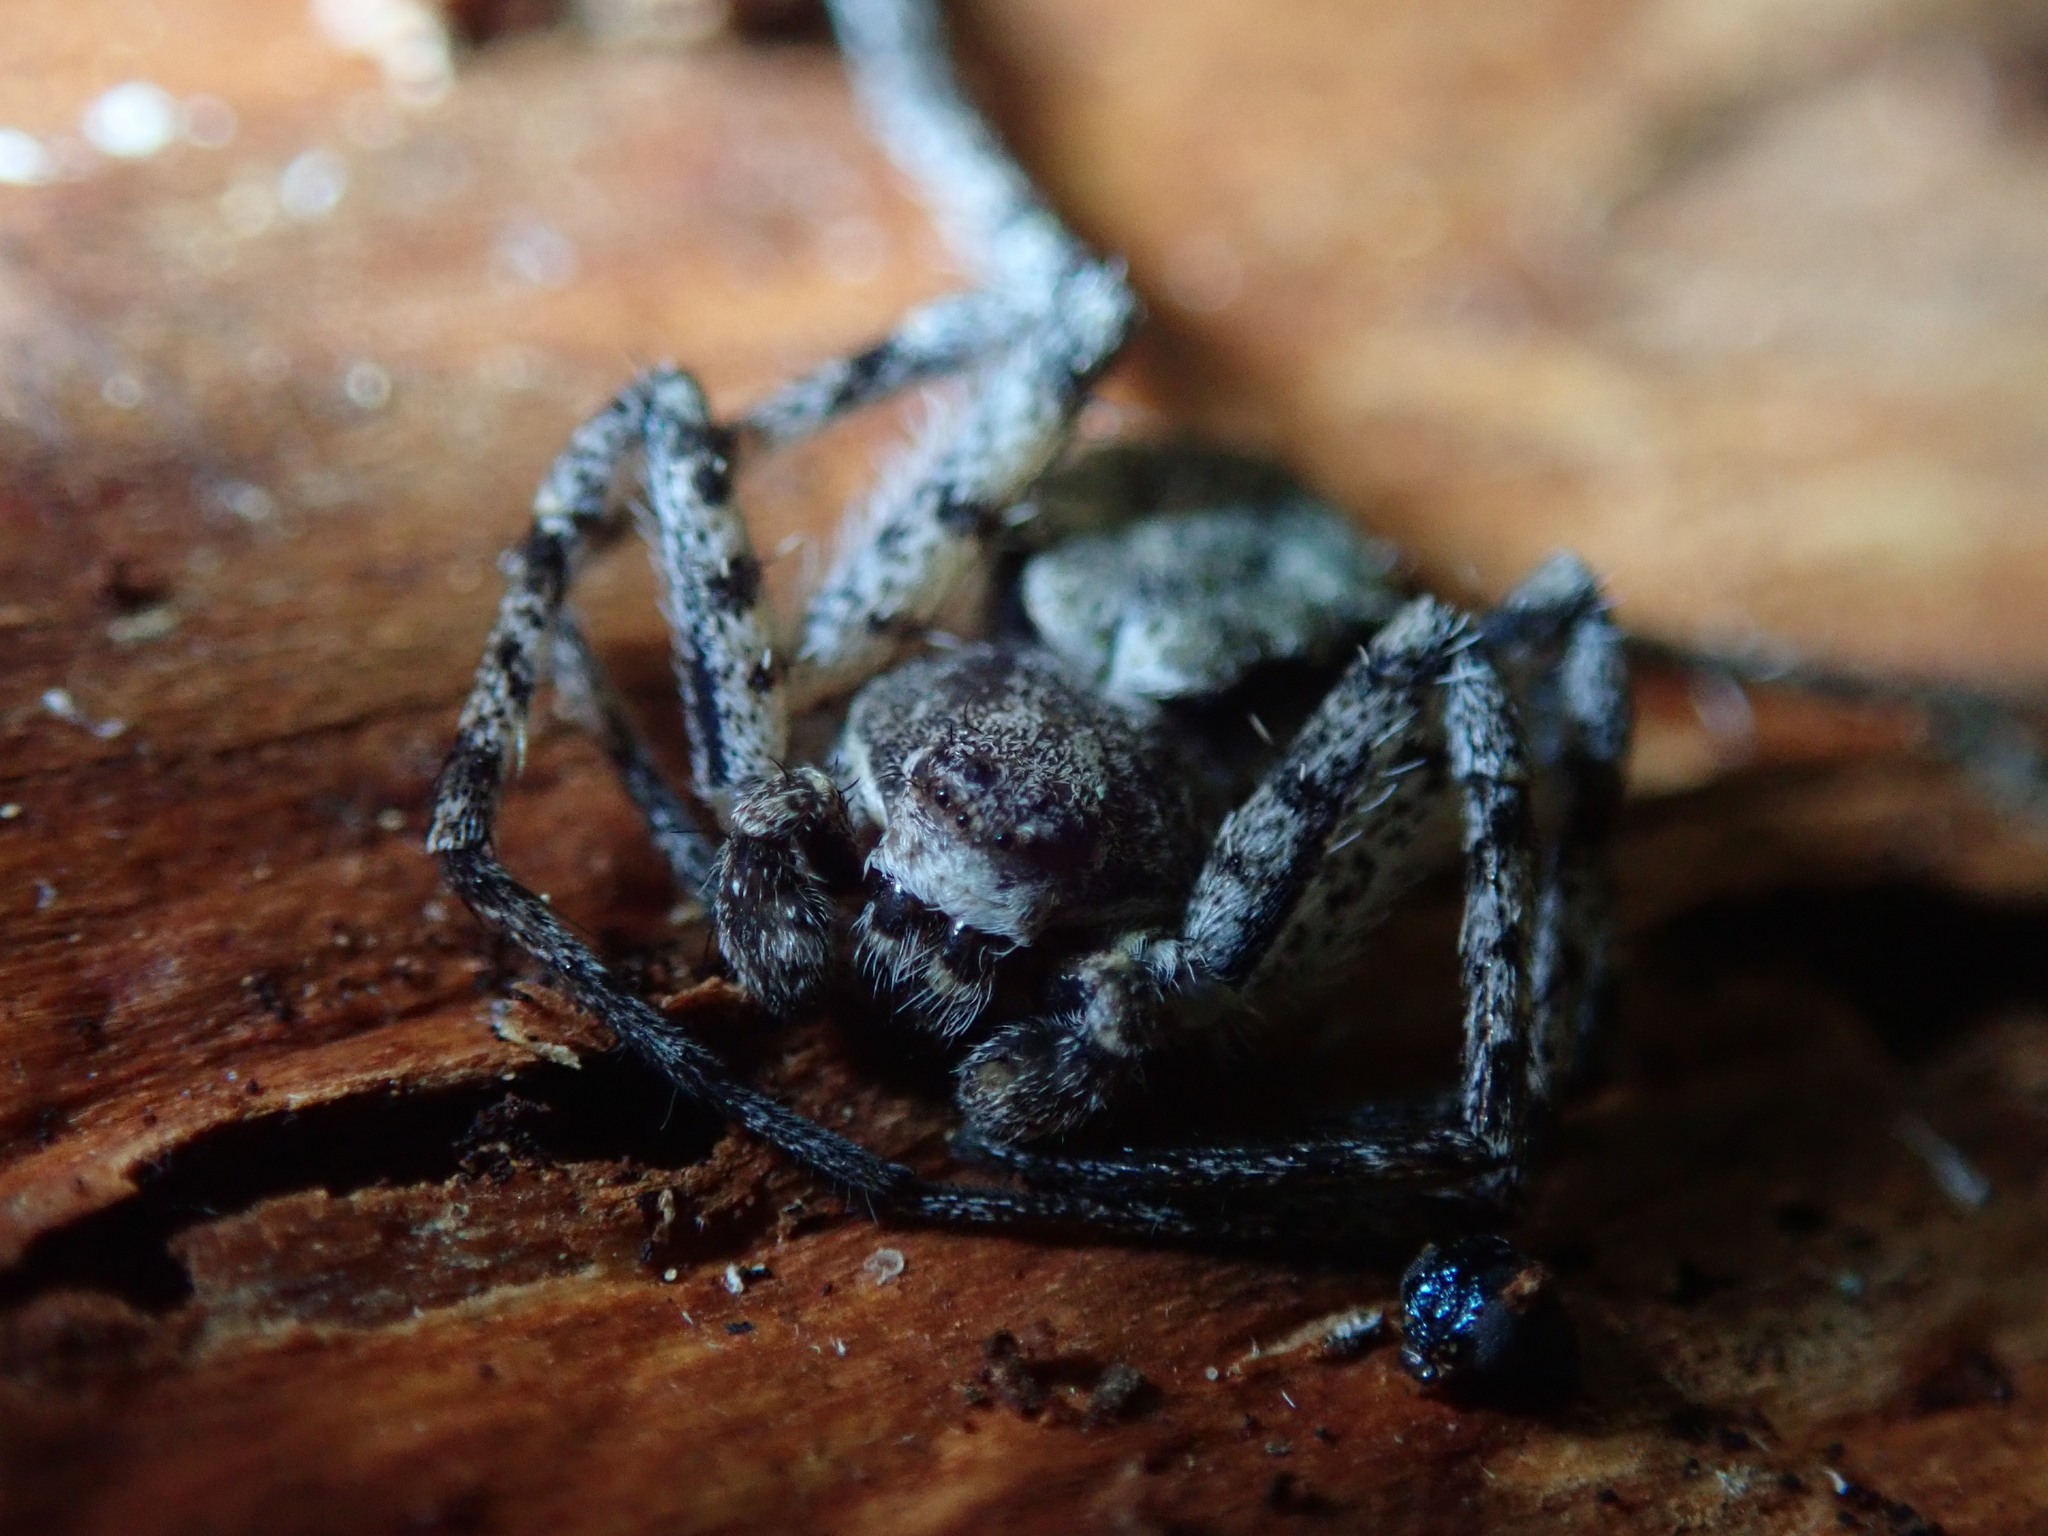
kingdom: Animalia
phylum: Arthropoda
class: Arachnida
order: Araneae
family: Philodromidae
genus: Philodromus
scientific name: Philodromus margaritatus
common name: Lichen running-spider
